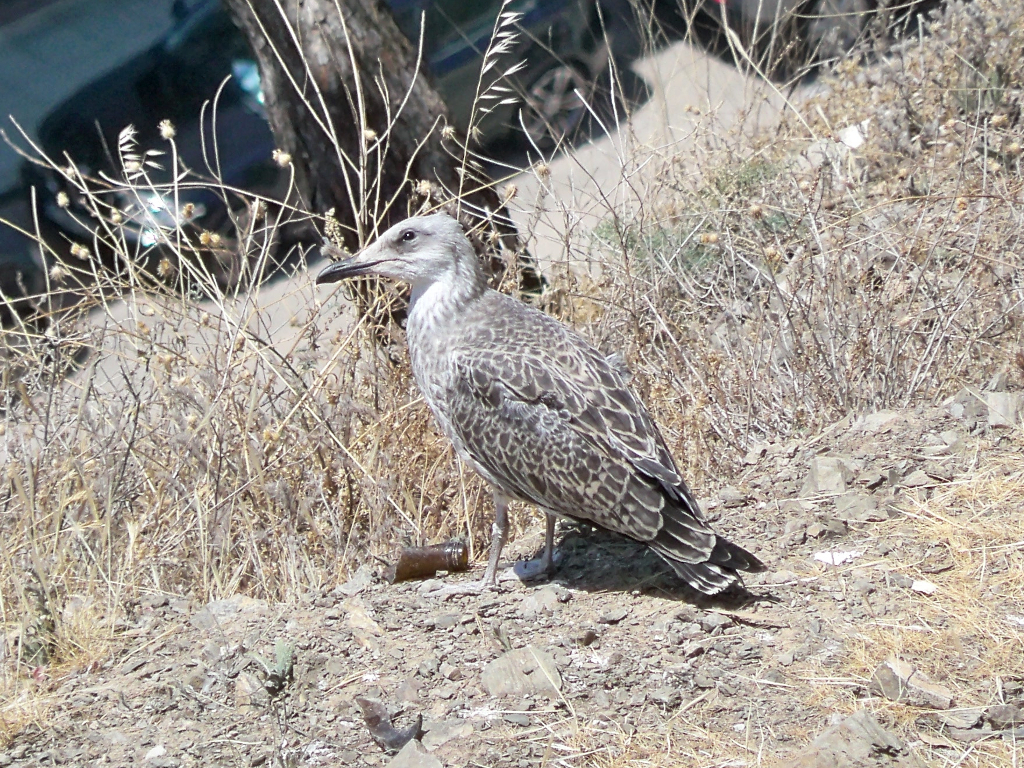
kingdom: Animalia
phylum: Chordata
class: Aves
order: Charadriiformes
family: Laridae
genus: Larus
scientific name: Larus michahellis
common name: Yellow-legged gull
